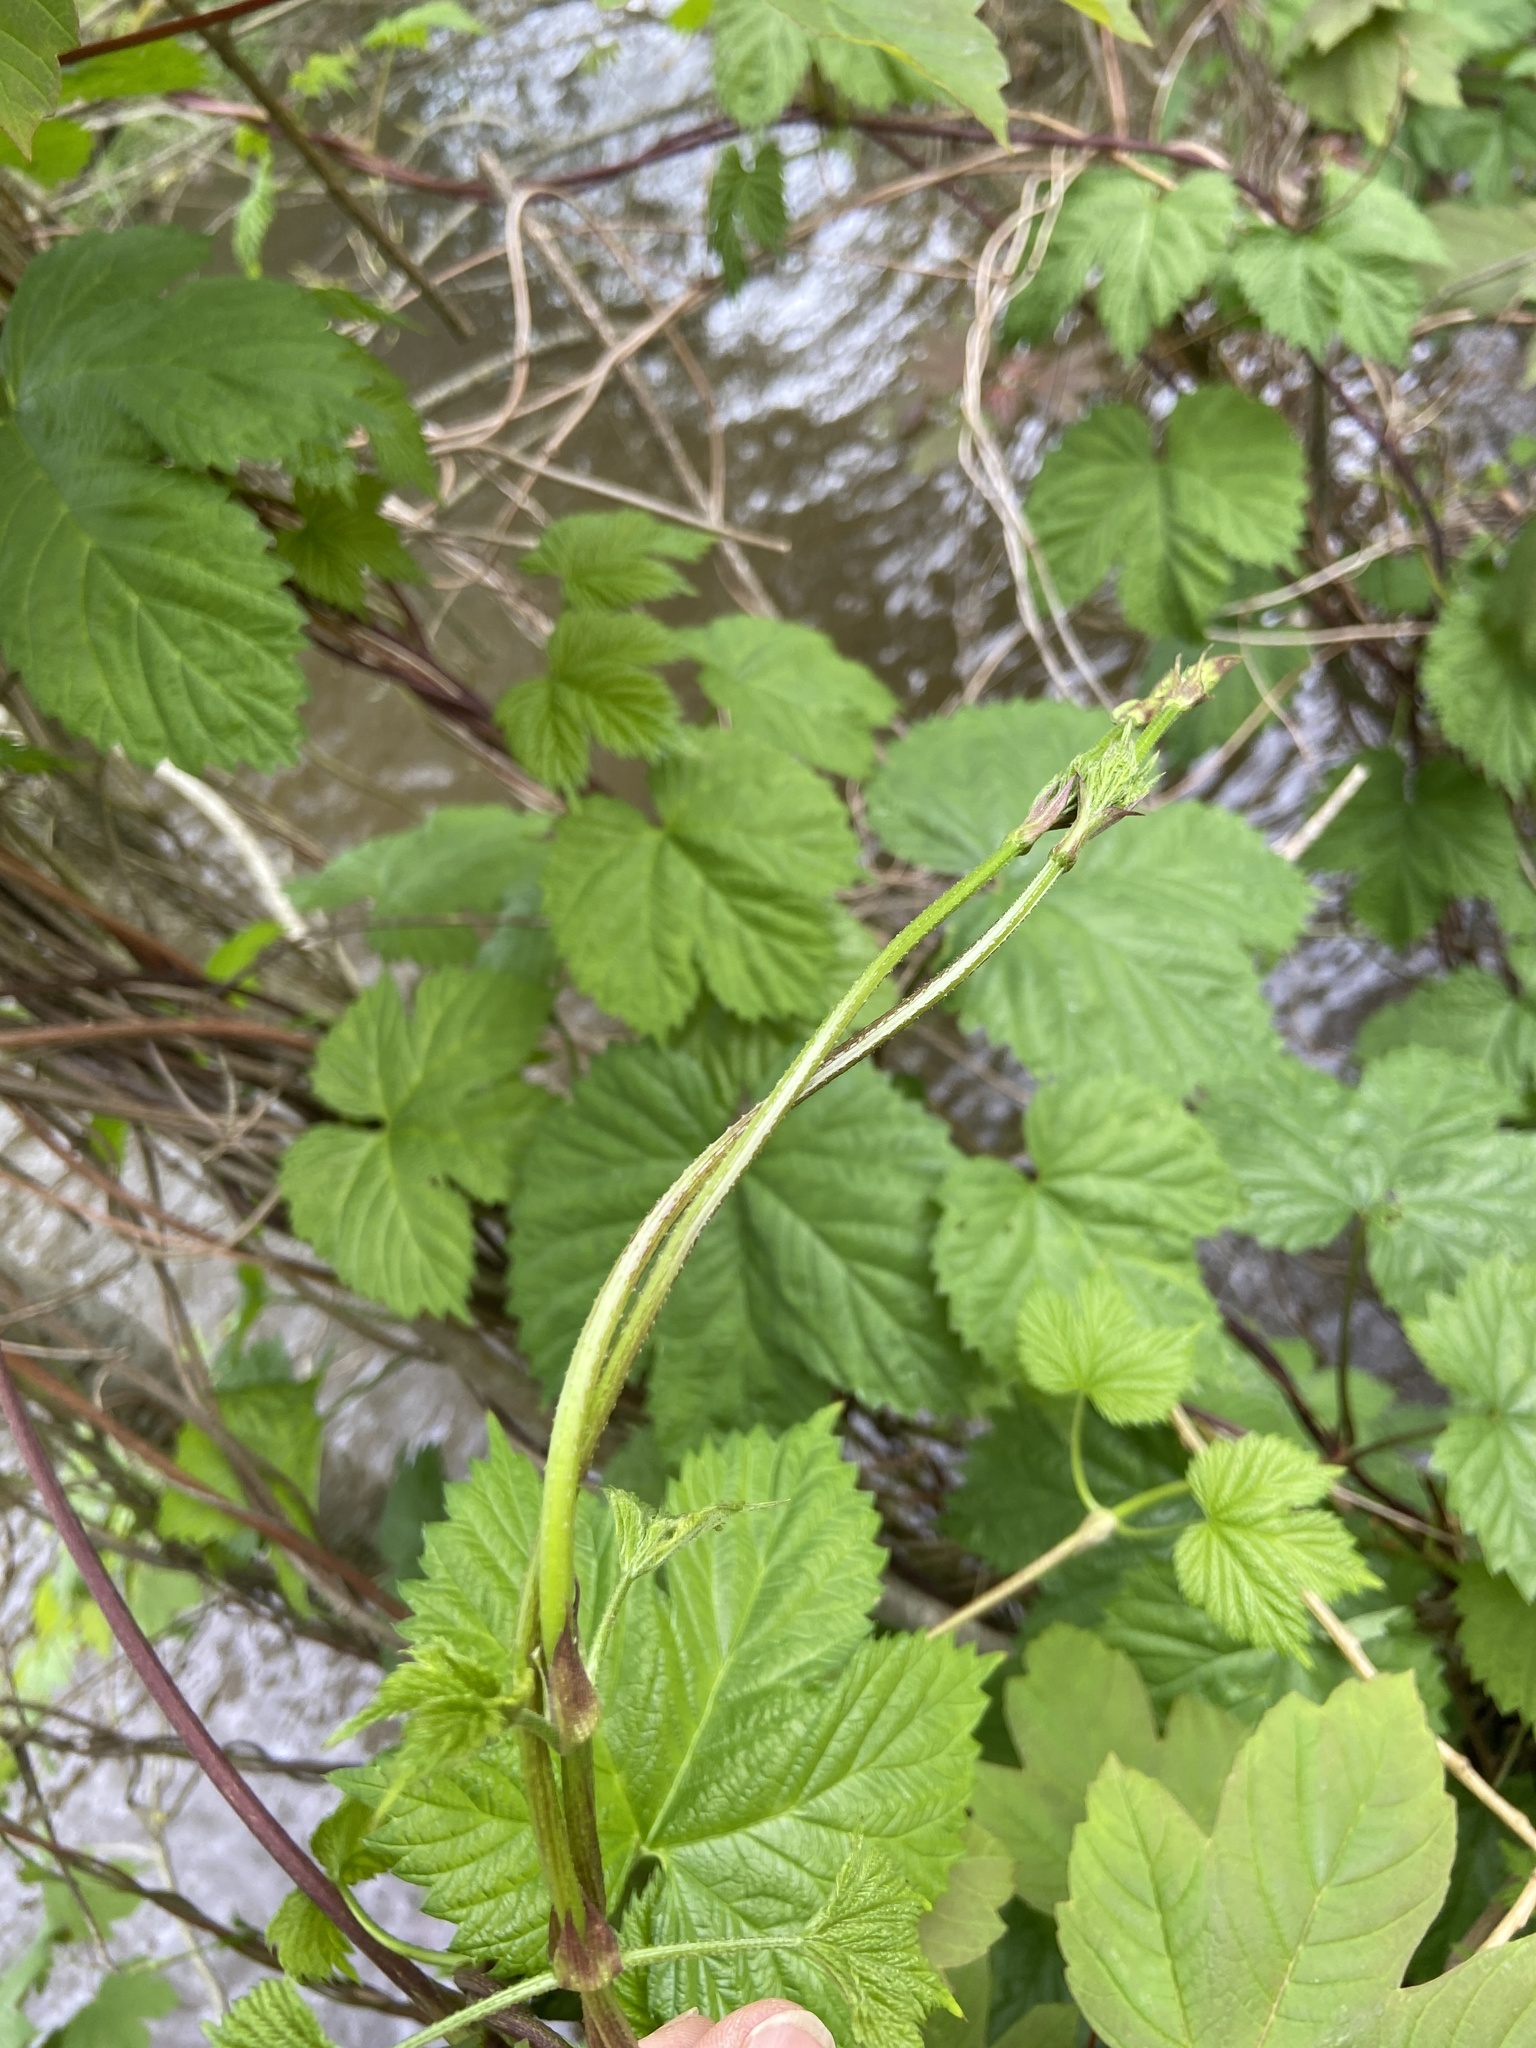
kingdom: Plantae
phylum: Tracheophyta
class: Magnoliopsida
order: Rosales
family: Cannabaceae
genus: Humulus
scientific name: Humulus lupulus
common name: Hop
